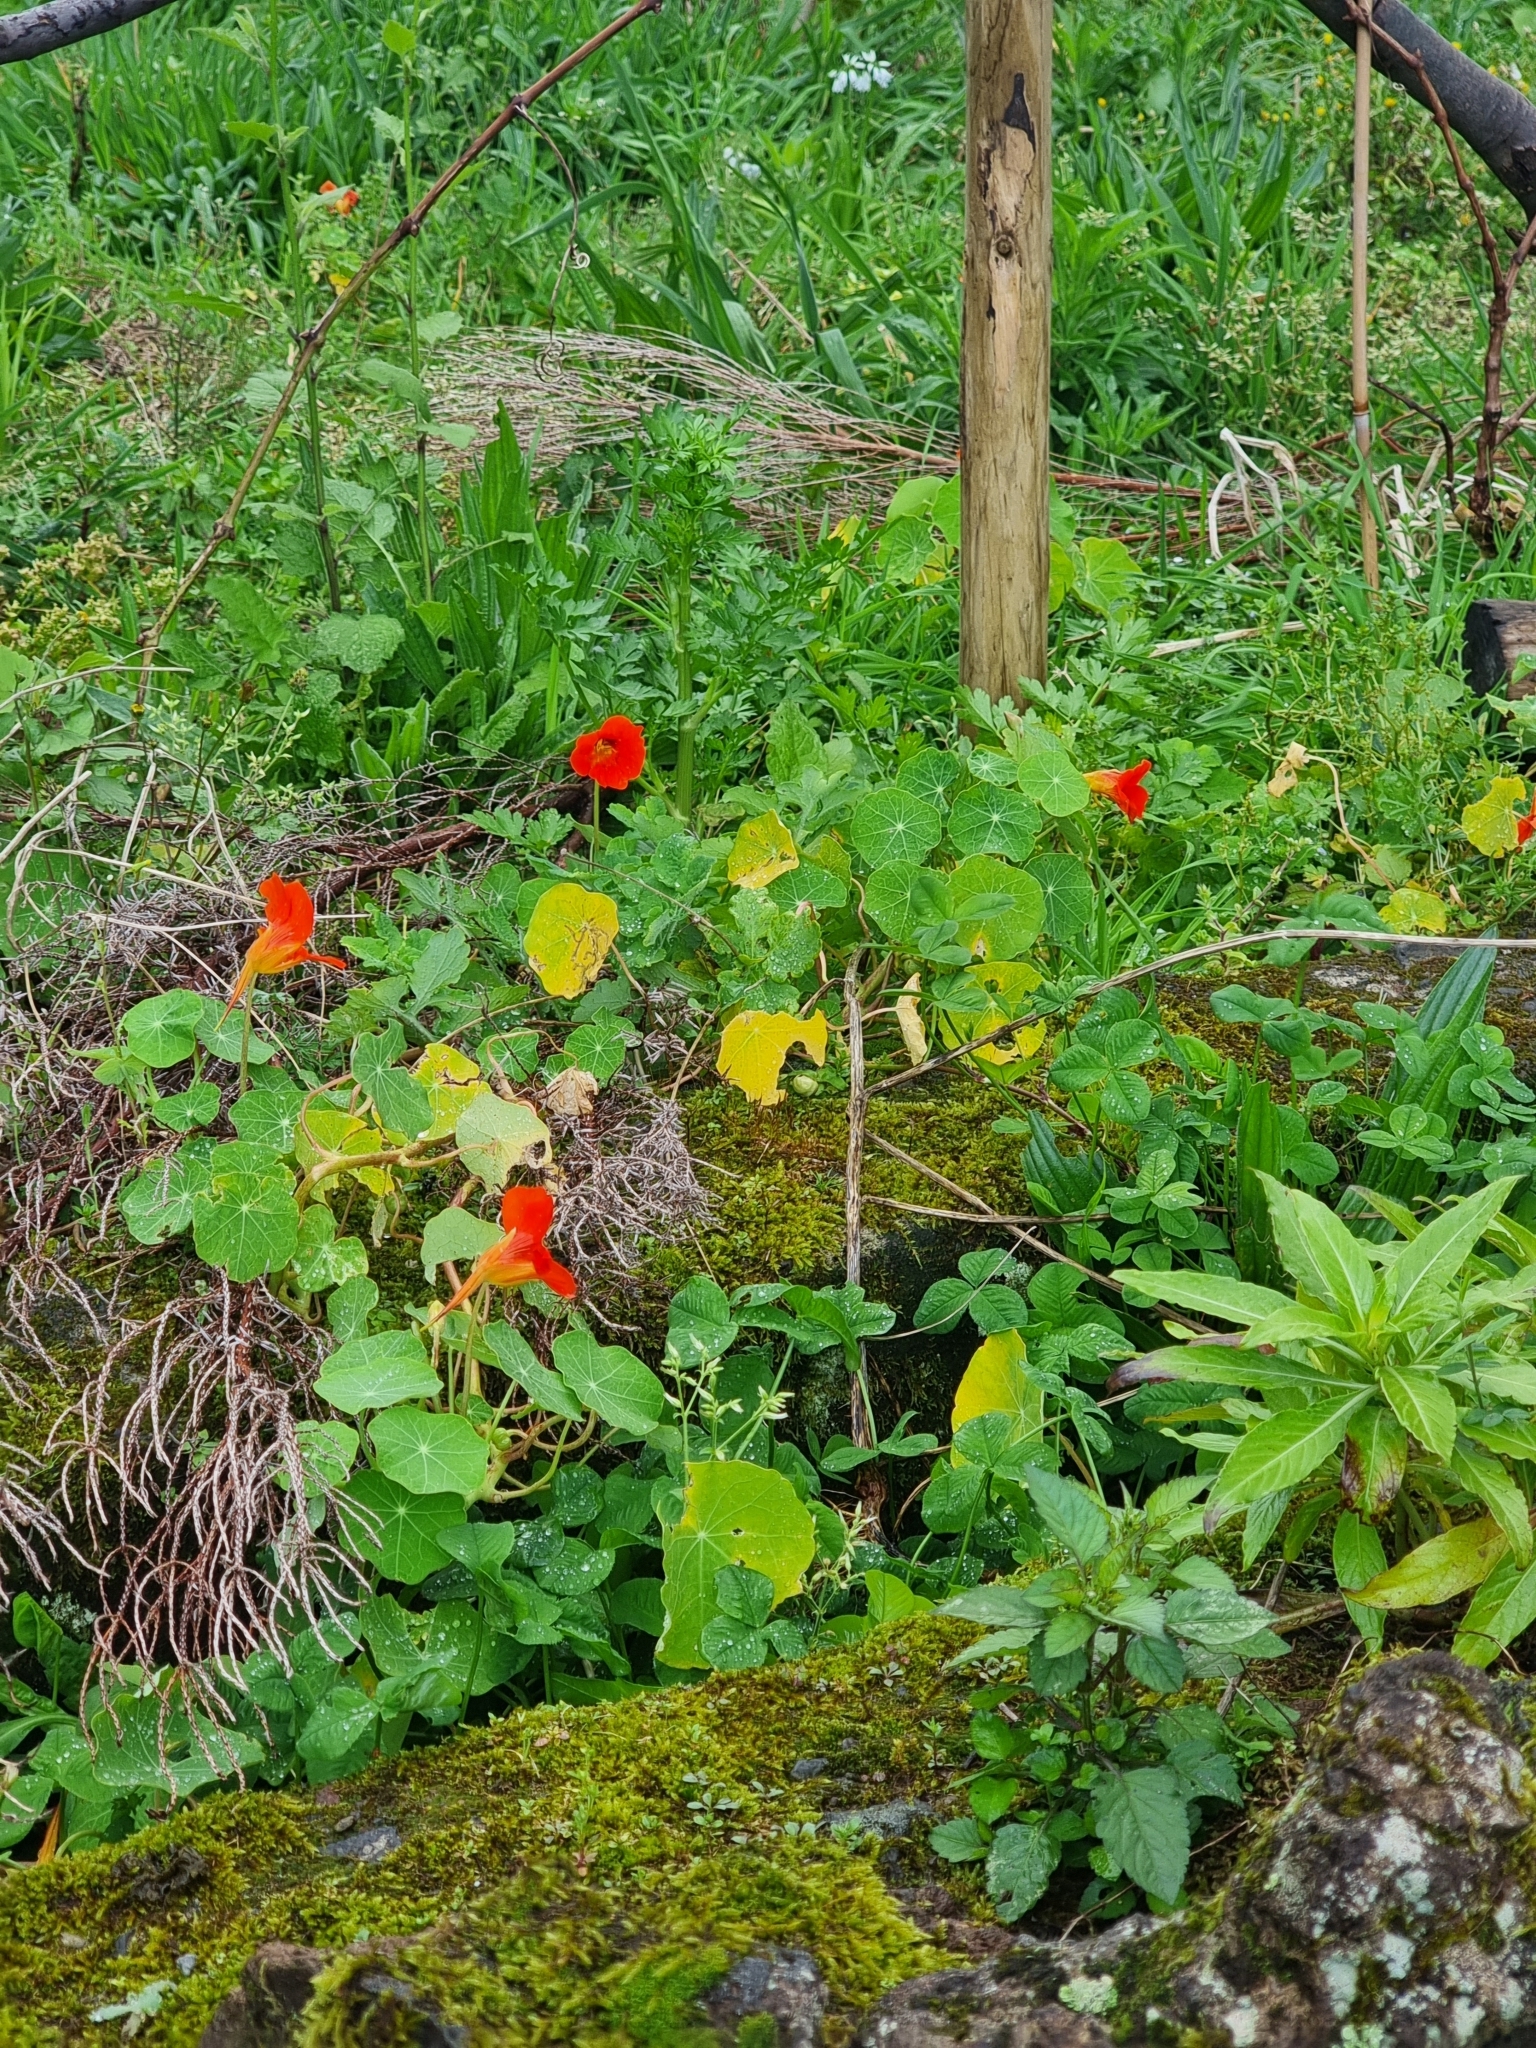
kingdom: Plantae
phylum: Tracheophyta
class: Magnoliopsida
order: Brassicales
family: Tropaeolaceae
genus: Tropaeolum
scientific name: Tropaeolum majus
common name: Nasturtium
